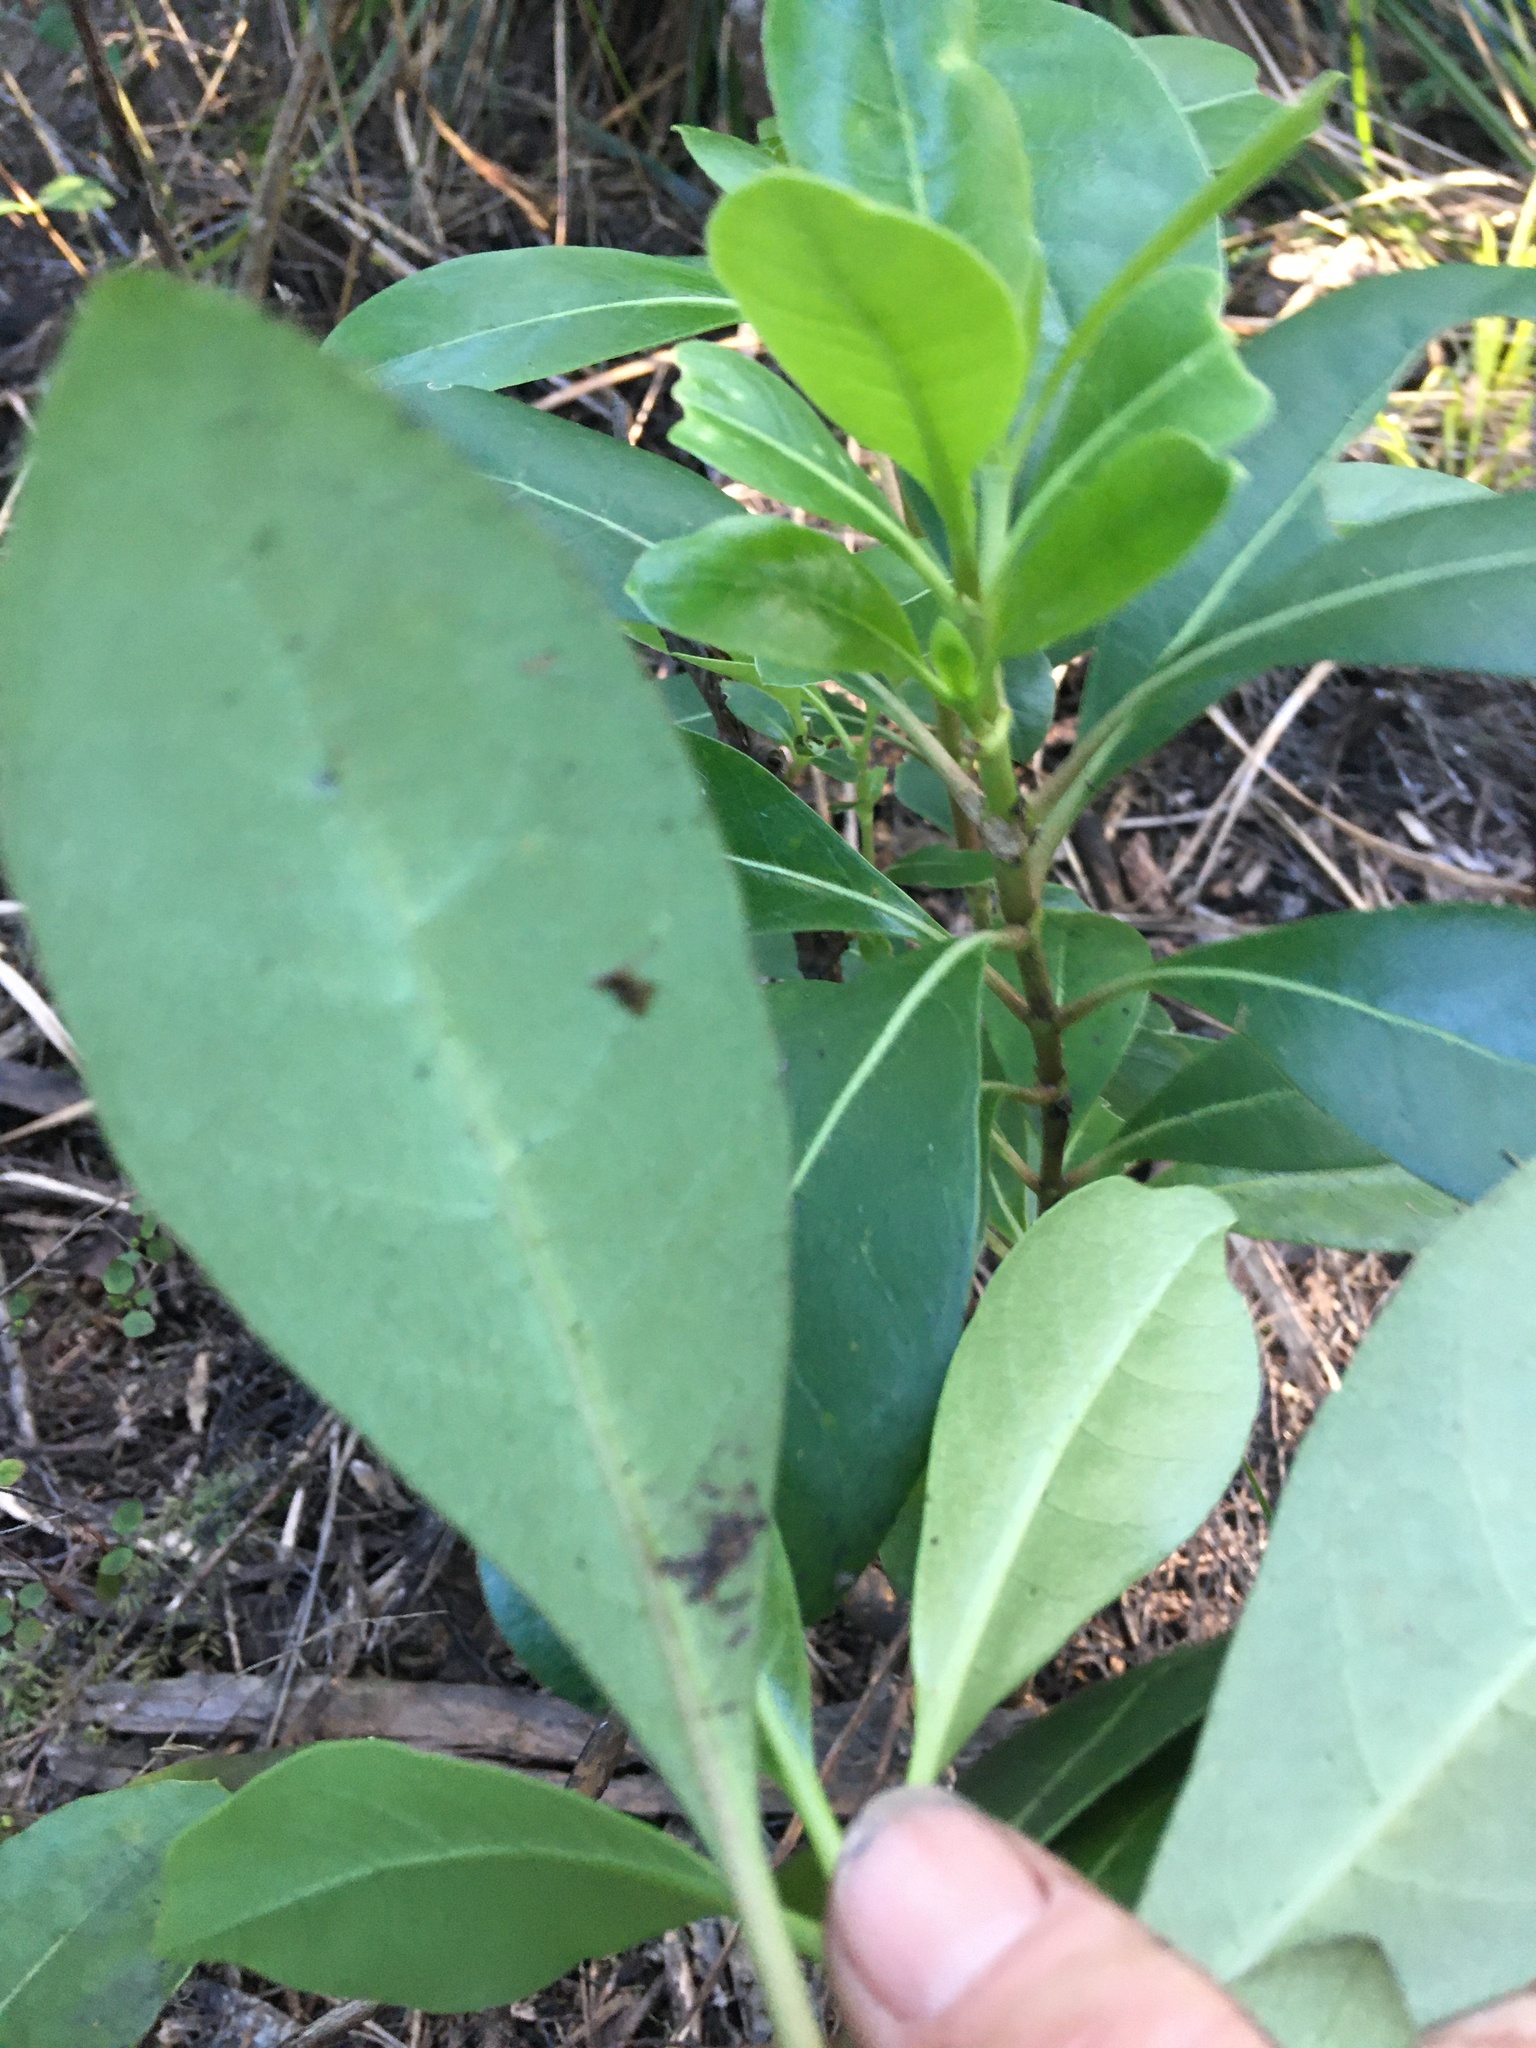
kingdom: Plantae
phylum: Tracheophyta
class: Magnoliopsida
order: Gentianales
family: Rubiaceae
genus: Coprosma
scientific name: Coprosma lucida
